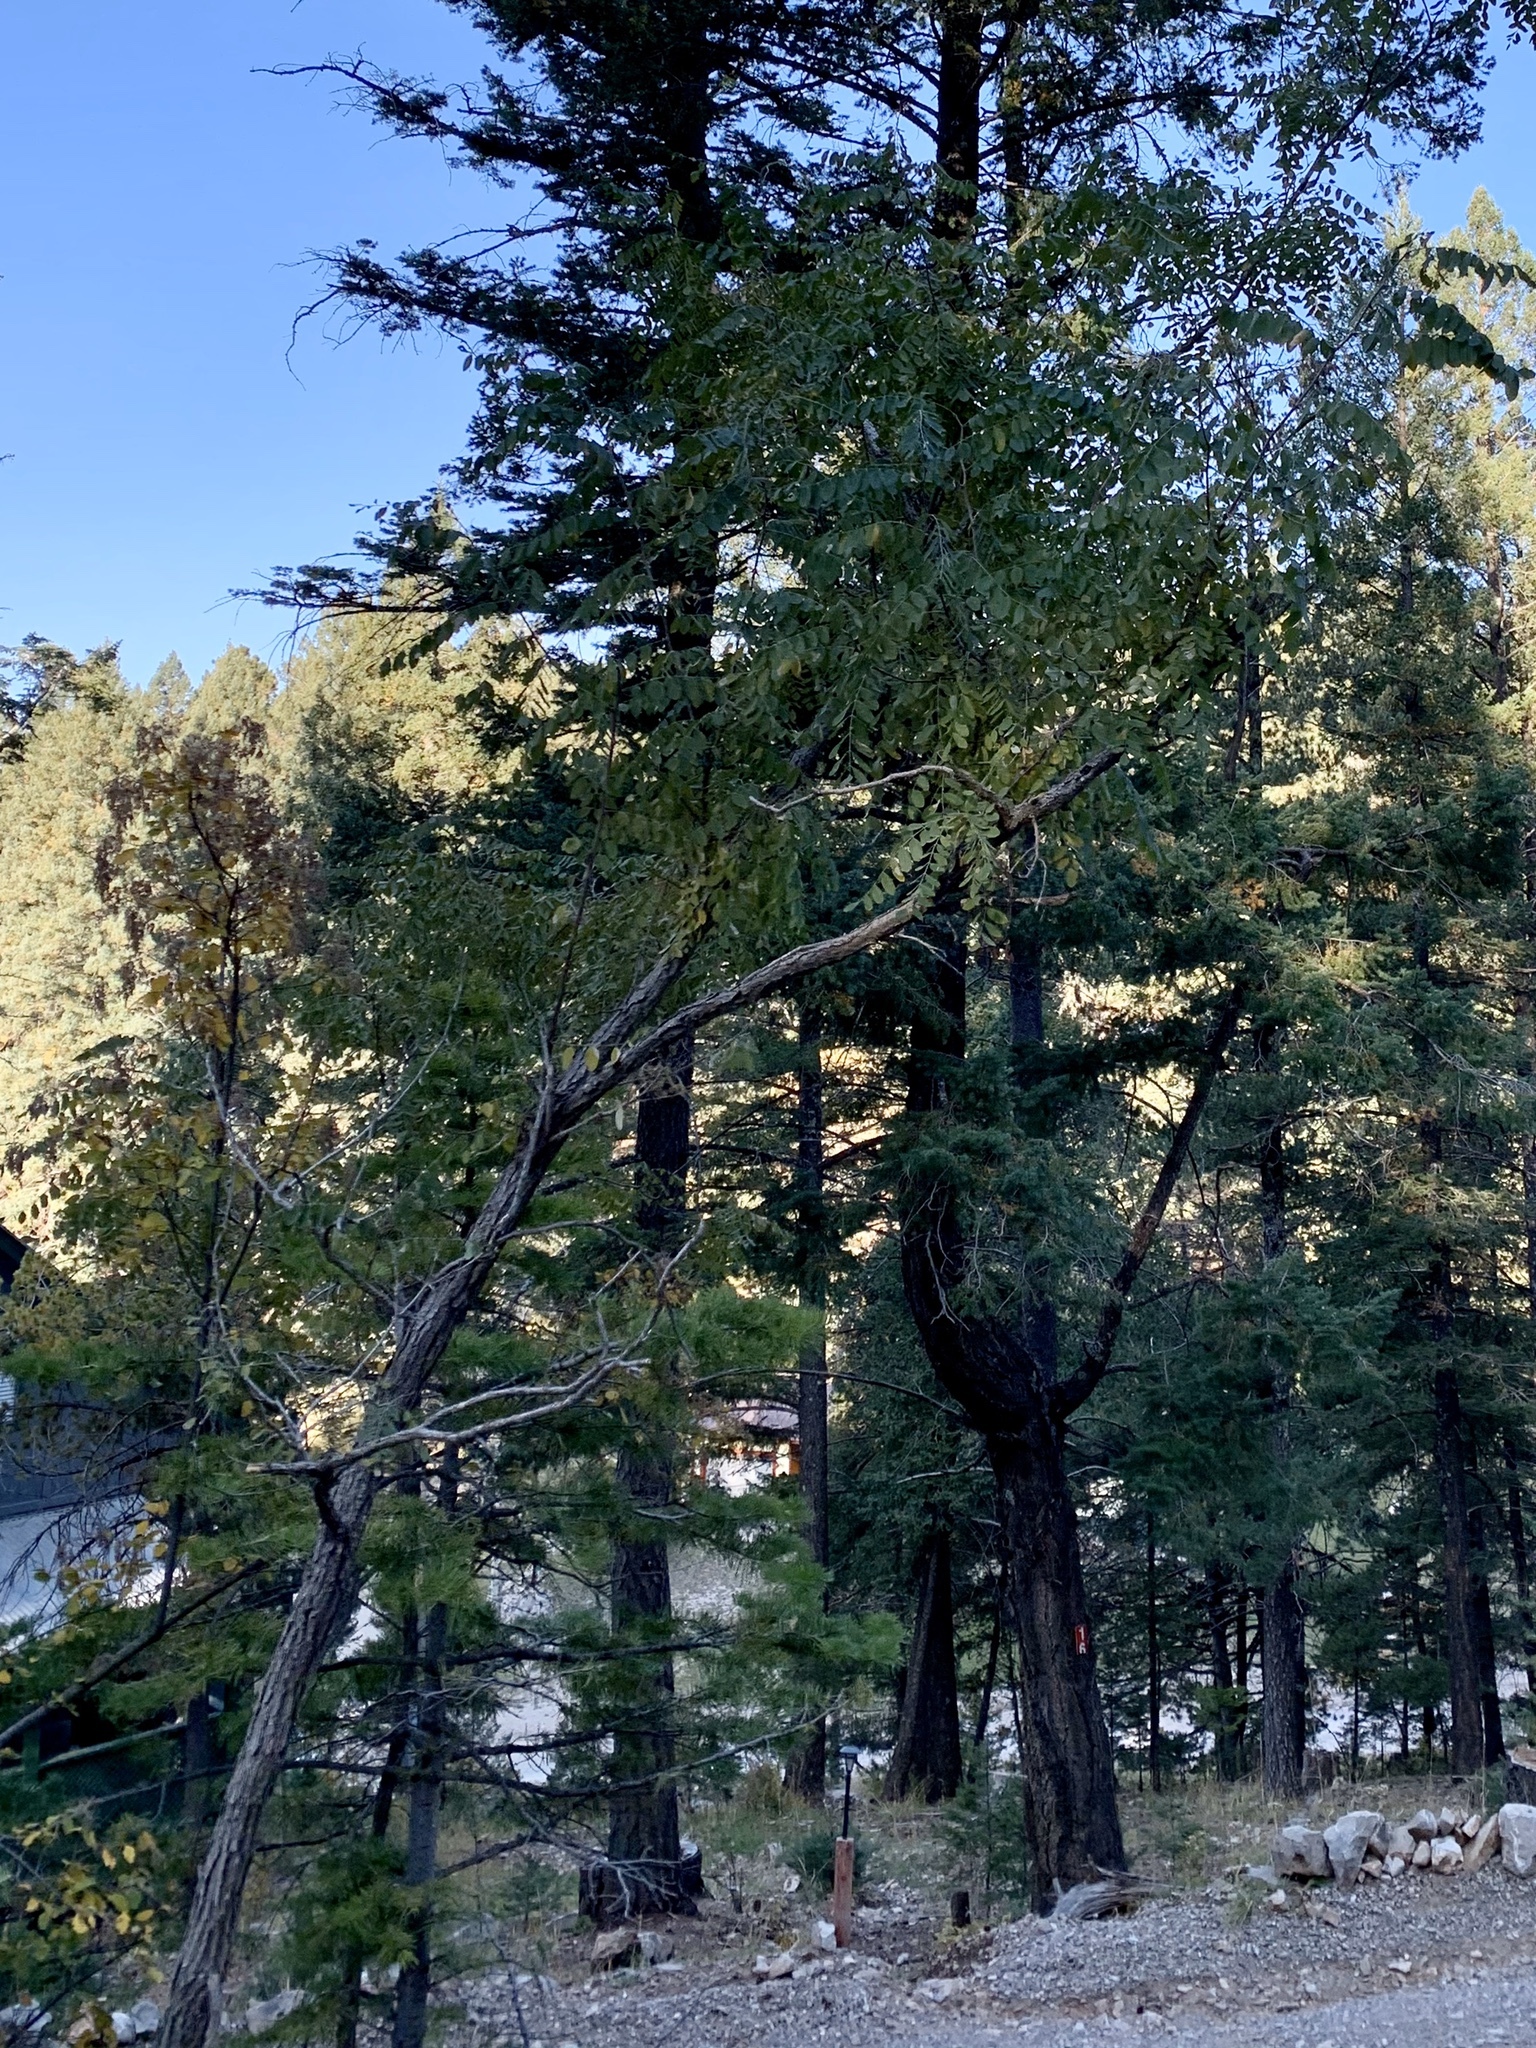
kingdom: Plantae
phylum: Tracheophyta
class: Magnoliopsida
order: Fabales
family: Fabaceae
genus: Robinia
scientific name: Robinia neomexicana
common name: New mexico locust
